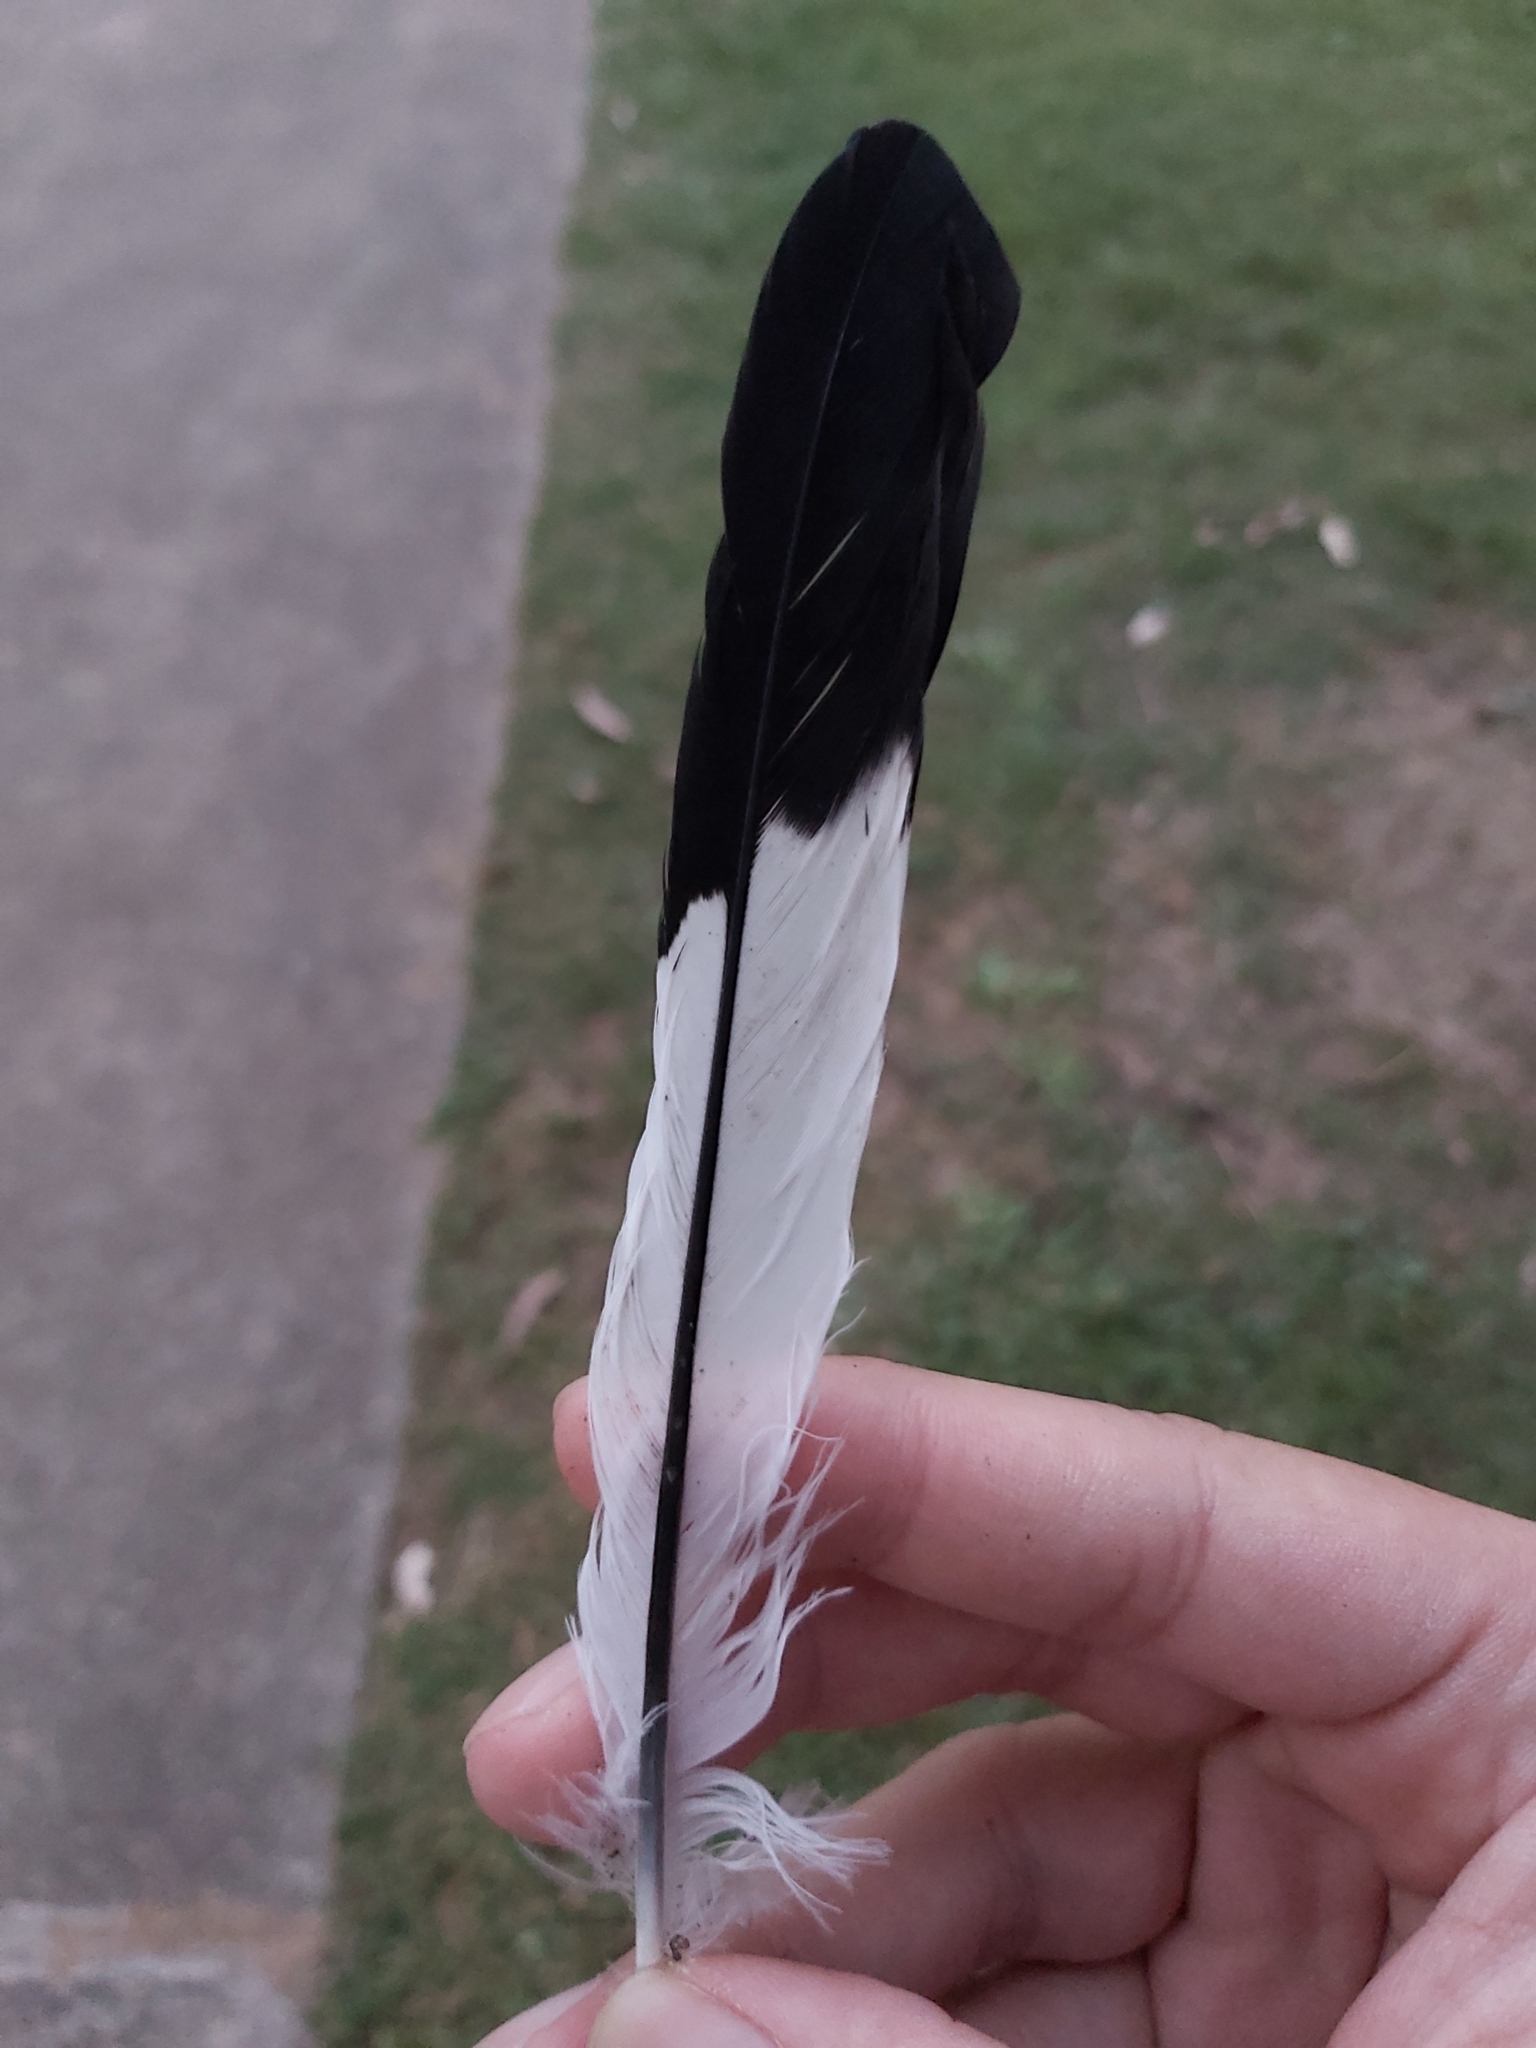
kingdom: Animalia
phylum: Chordata
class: Aves
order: Passeriformes
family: Cracticidae
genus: Gymnorhina
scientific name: Gymnorhina tibicen
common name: Australian magpie
